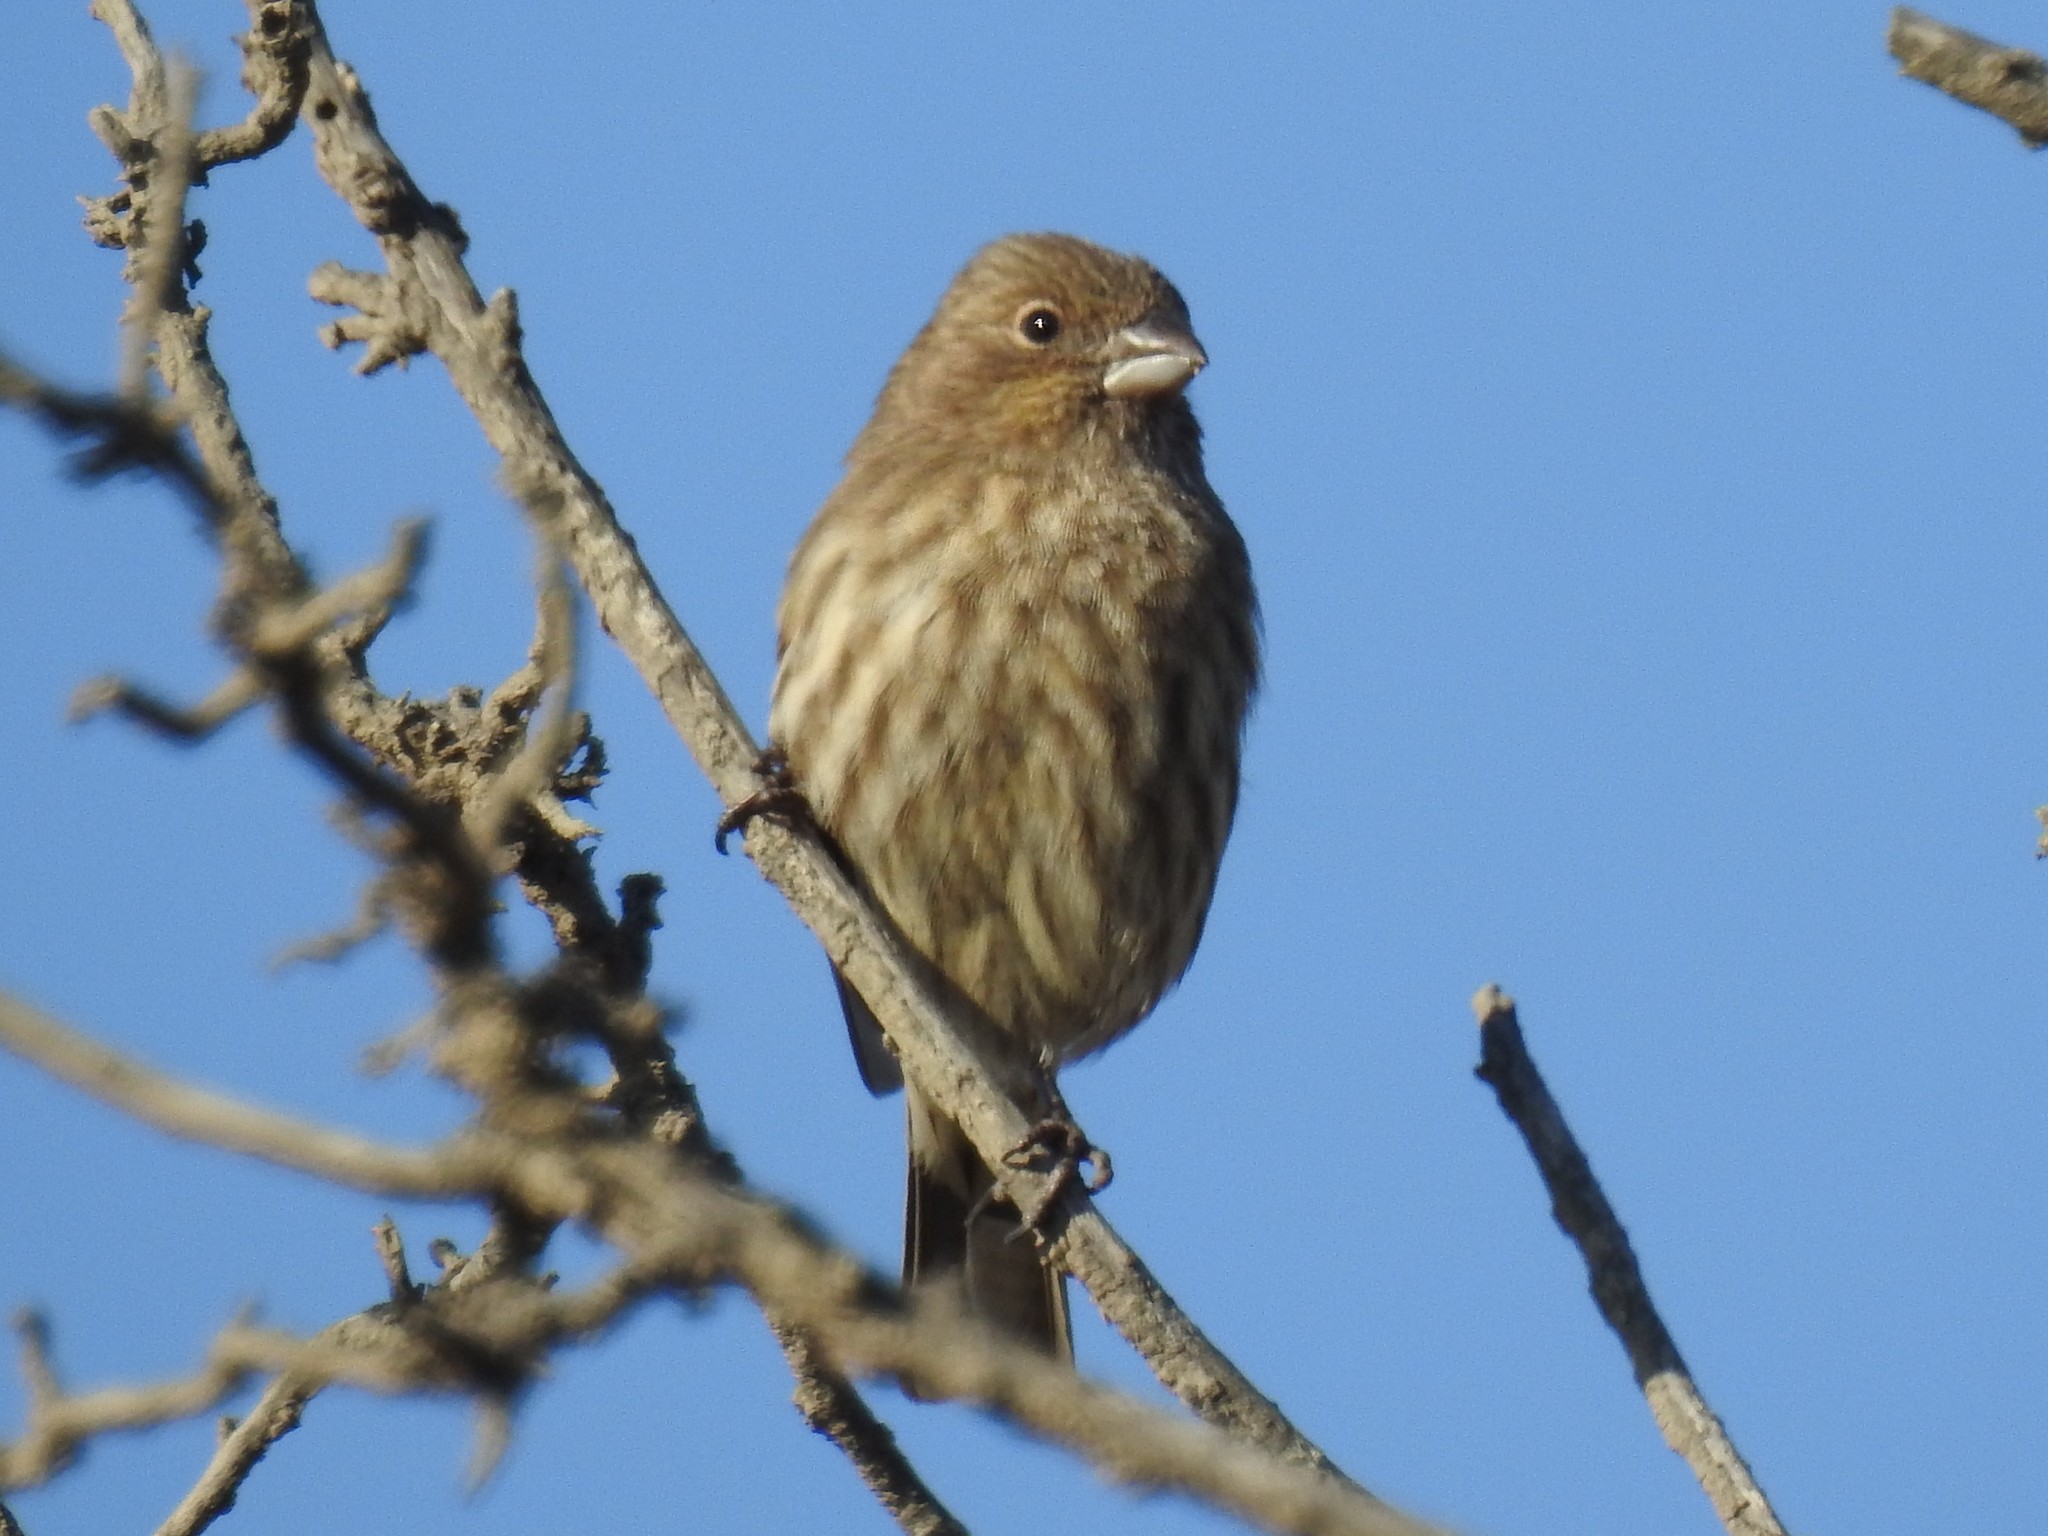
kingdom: Animalia
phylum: Chordata
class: Aves
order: Passeriformes
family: Fringillidae
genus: Haemorhous
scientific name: Haemorhous mexicanus
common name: House finch
